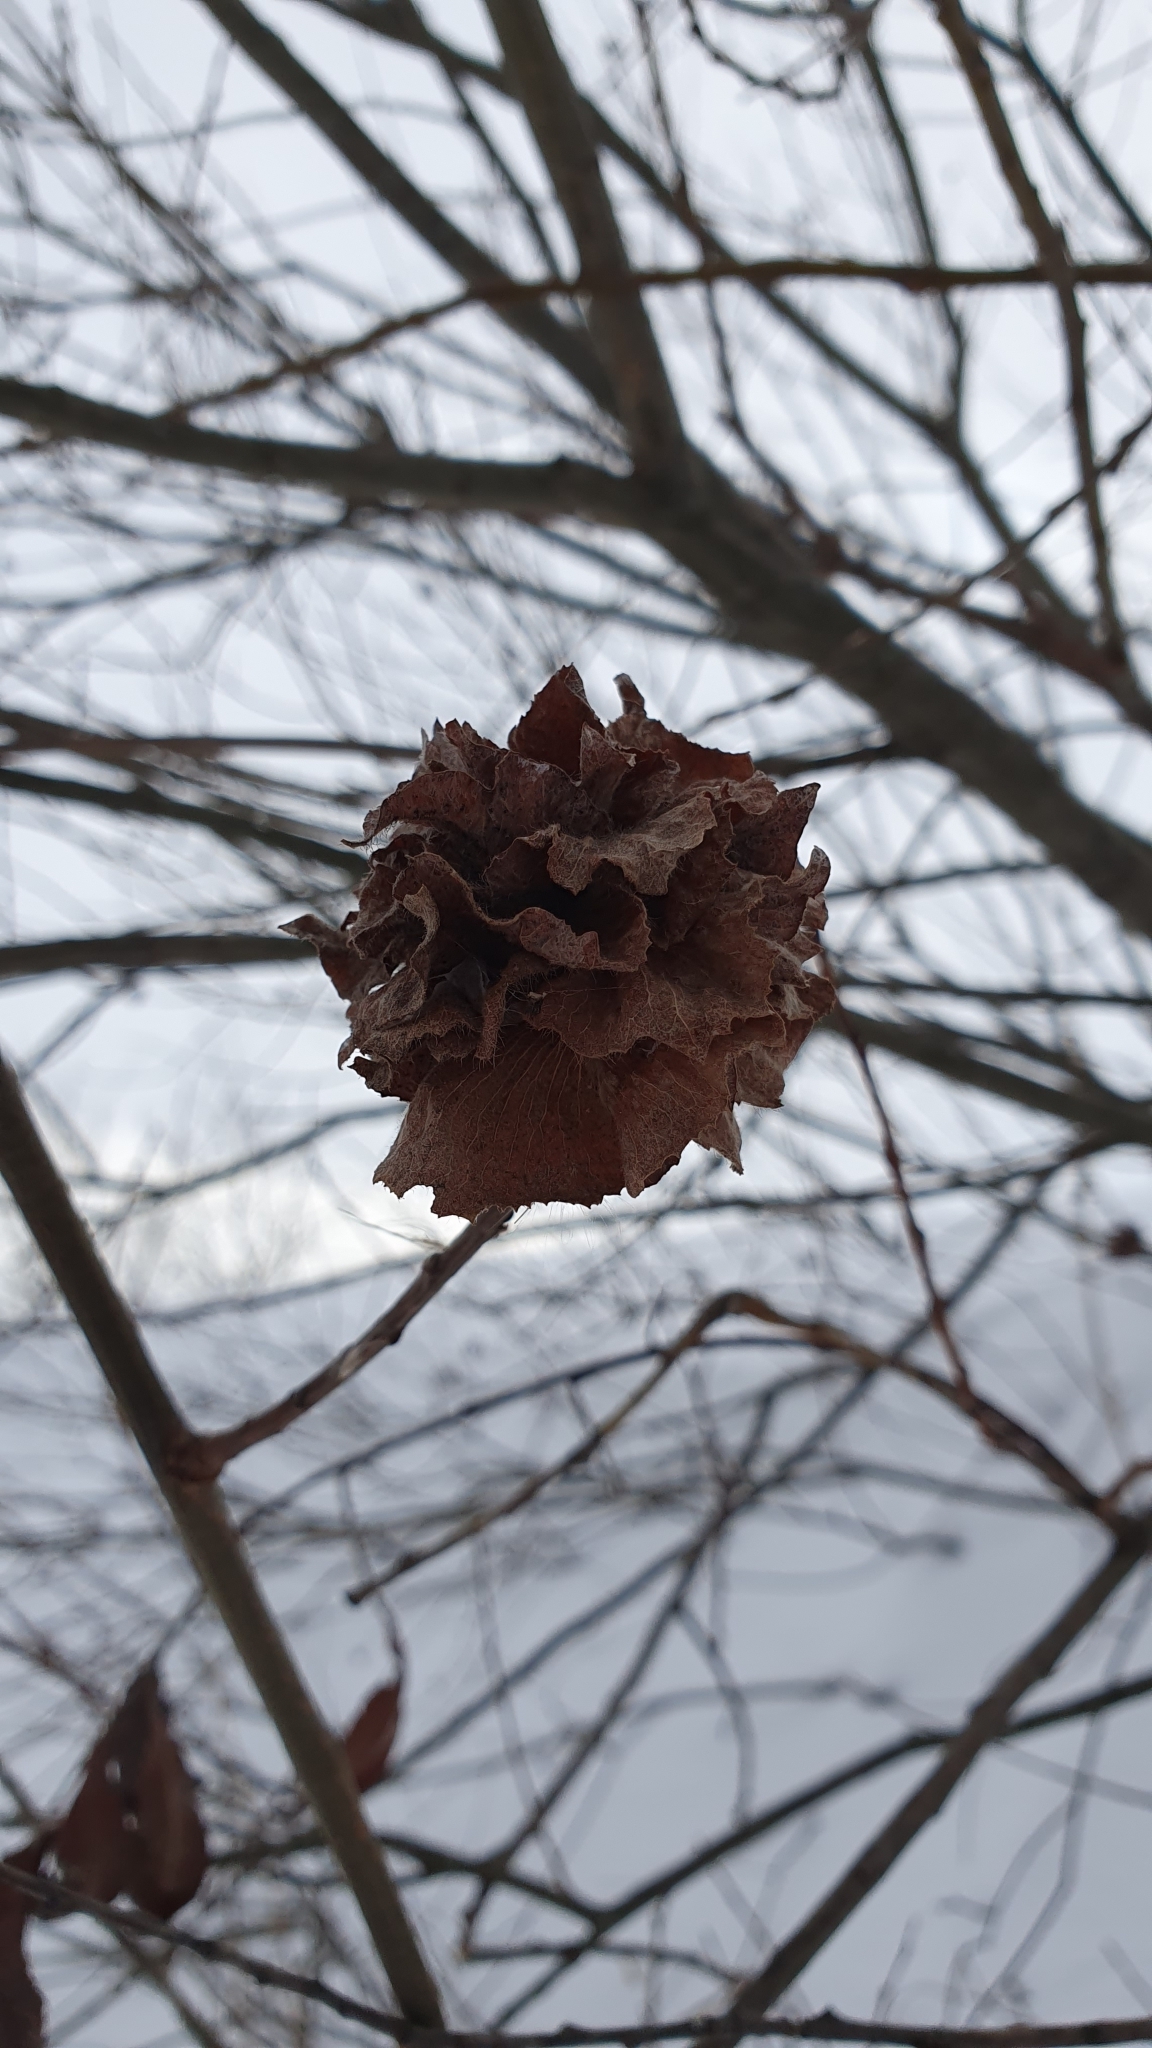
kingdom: Animalia
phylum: Arthropoda
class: Insecta
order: Diptera
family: Cecidomyiidae
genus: Rabdophaga
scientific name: Rabdophaga rosaria
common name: Willow rose gall midge
